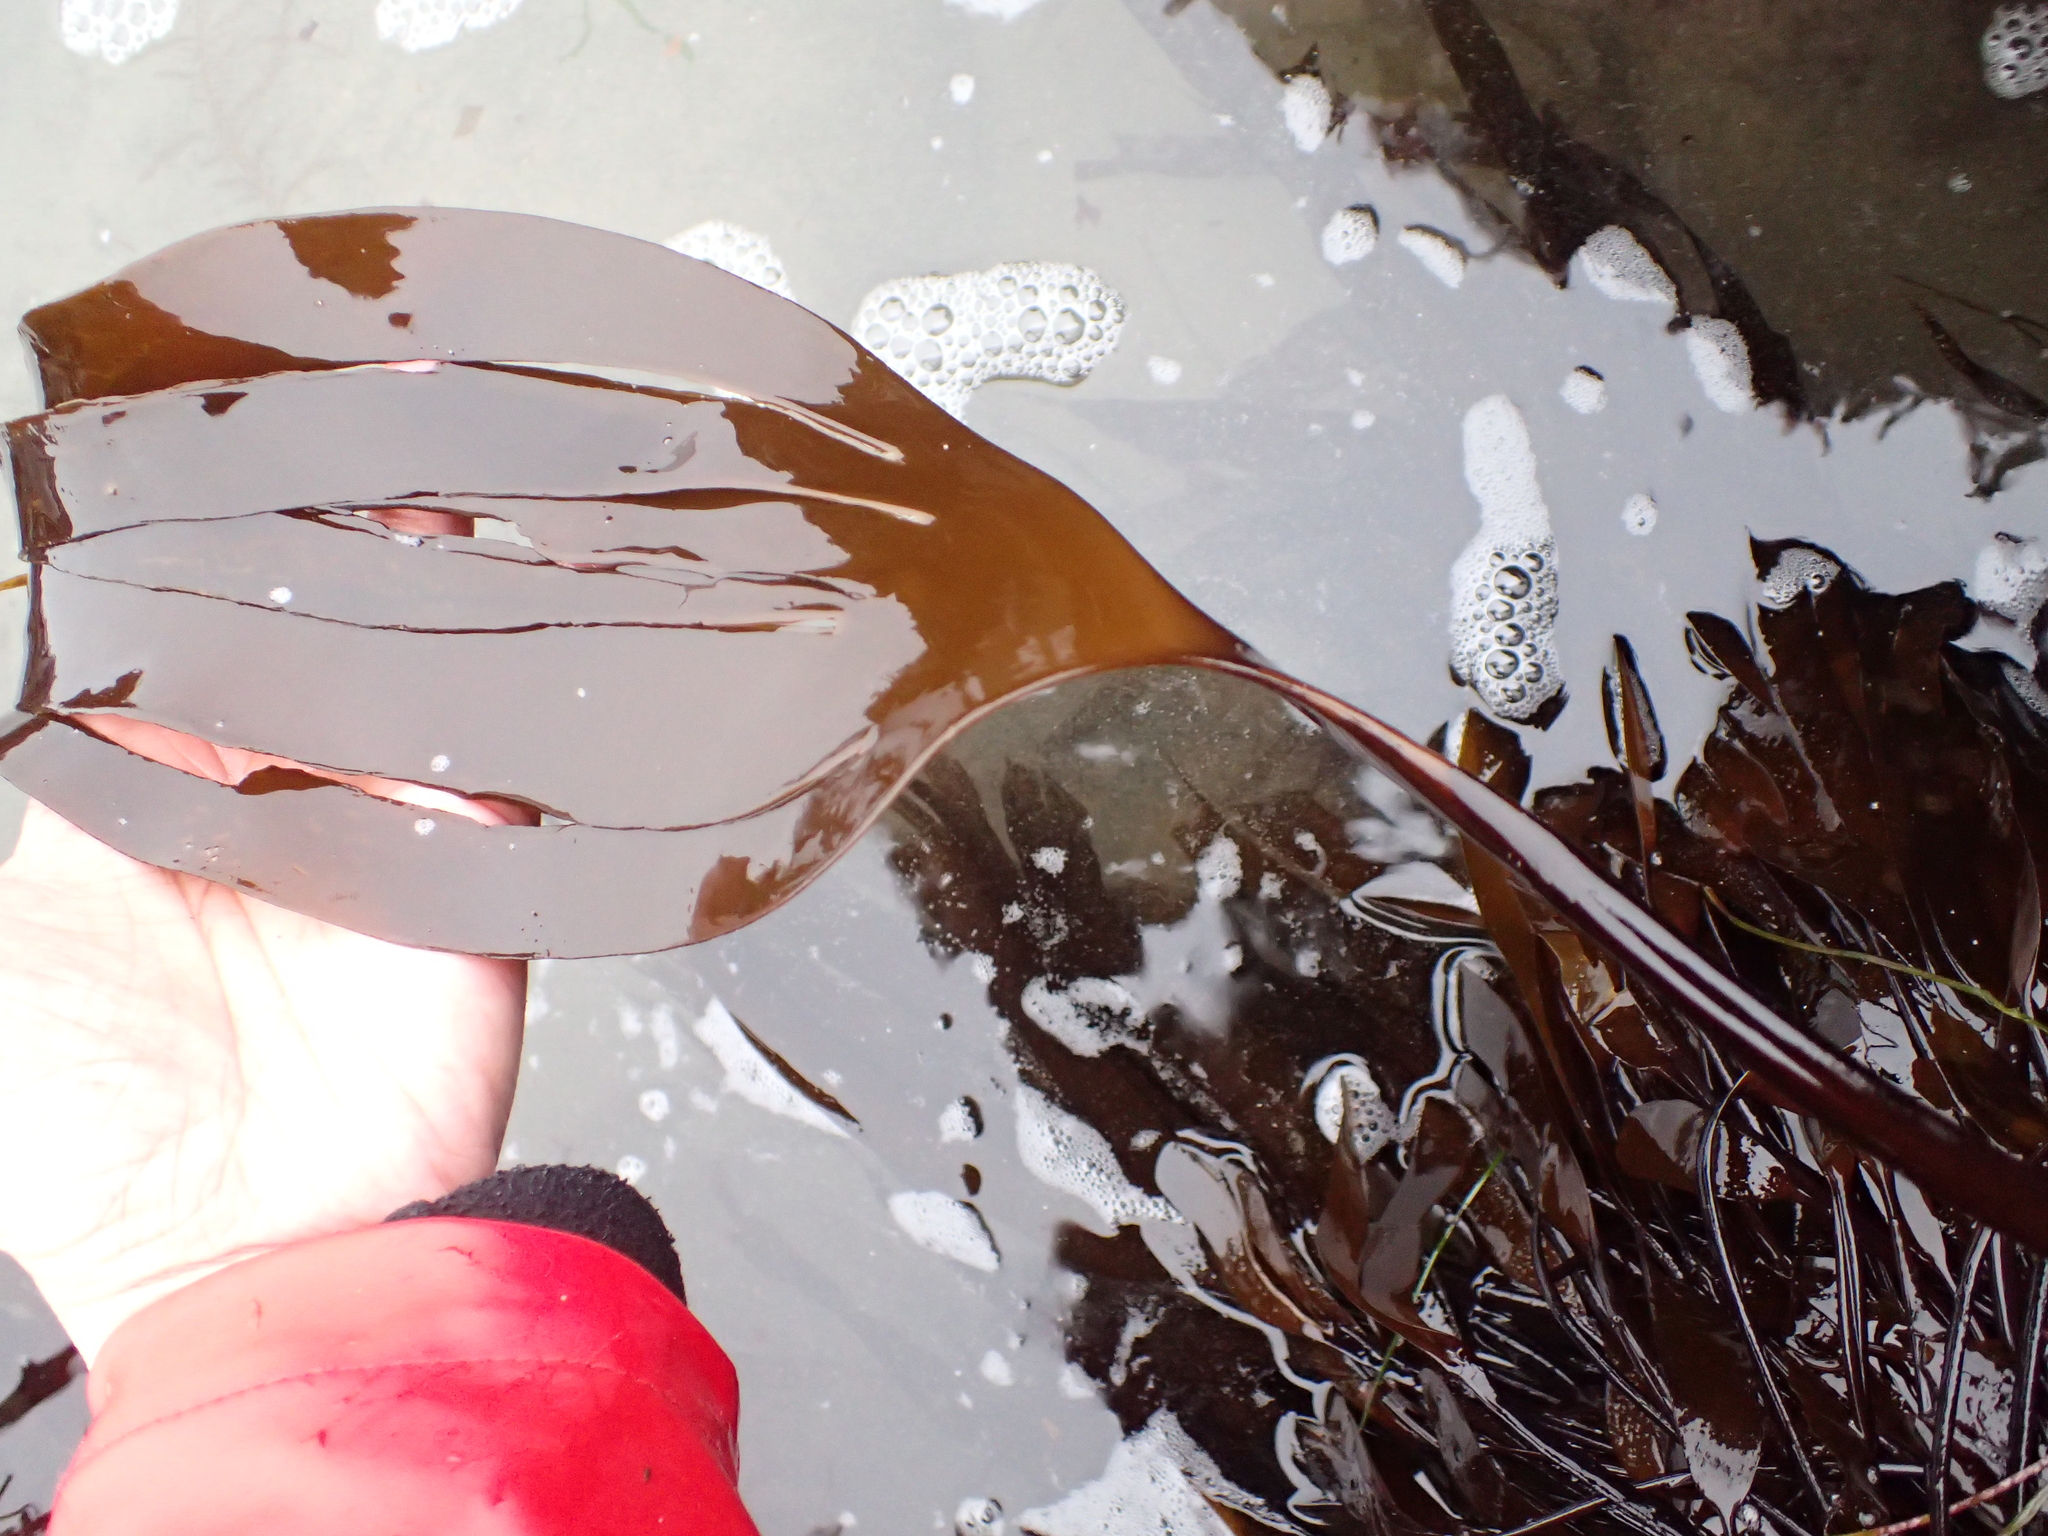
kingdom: Chromista
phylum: Ochrophyta
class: Phaeophyceae
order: Laminariales
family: Laminariaceae
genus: Laminaria
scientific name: Laminaria setchellii
